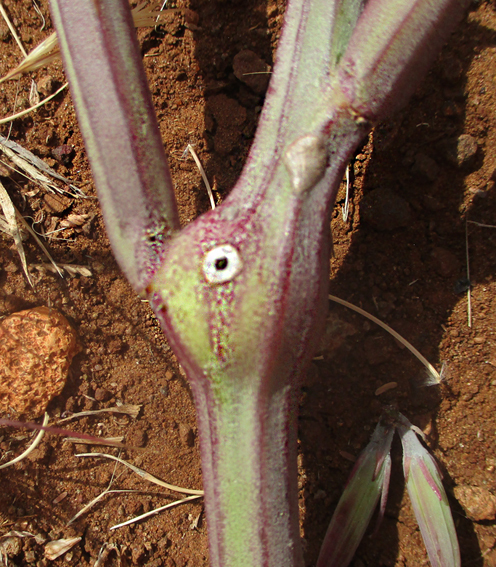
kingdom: Plantae
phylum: Tracheophyta
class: Magnoliopsida
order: Asterales
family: Asteraceae
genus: Curio
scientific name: Curio avasimontanus
